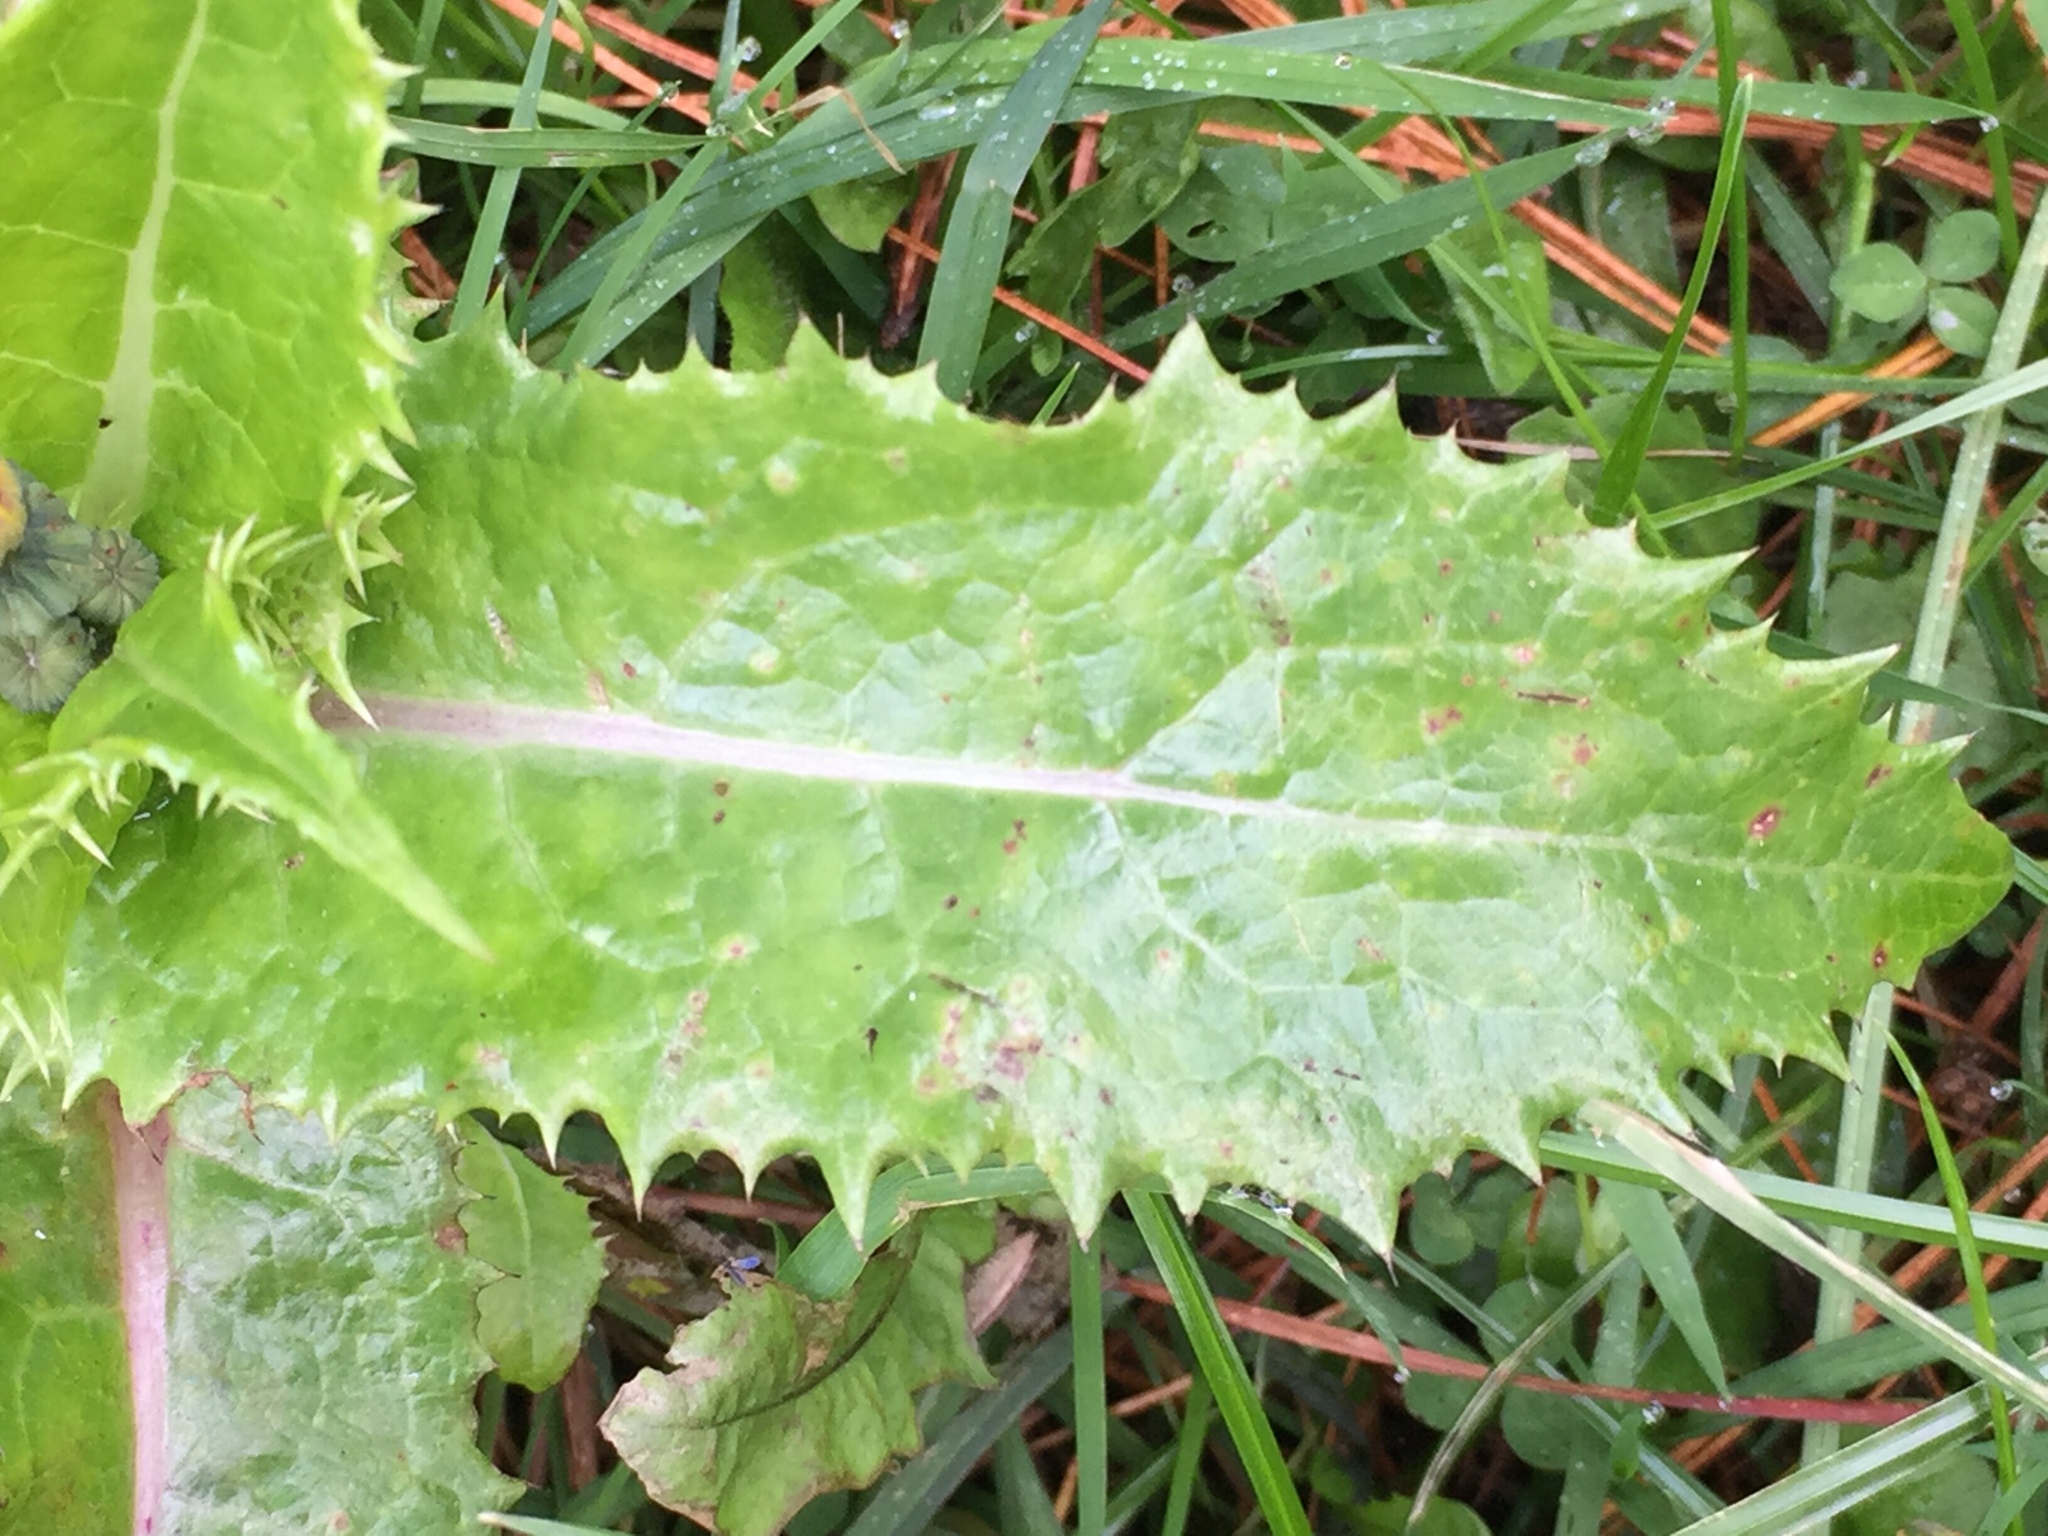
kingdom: Plantae
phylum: Tracheophyta
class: Magnoliopsida
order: Asterales
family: Asteraceae
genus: Sonchus
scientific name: Sonchus asper
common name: Prickly sow-thistle
